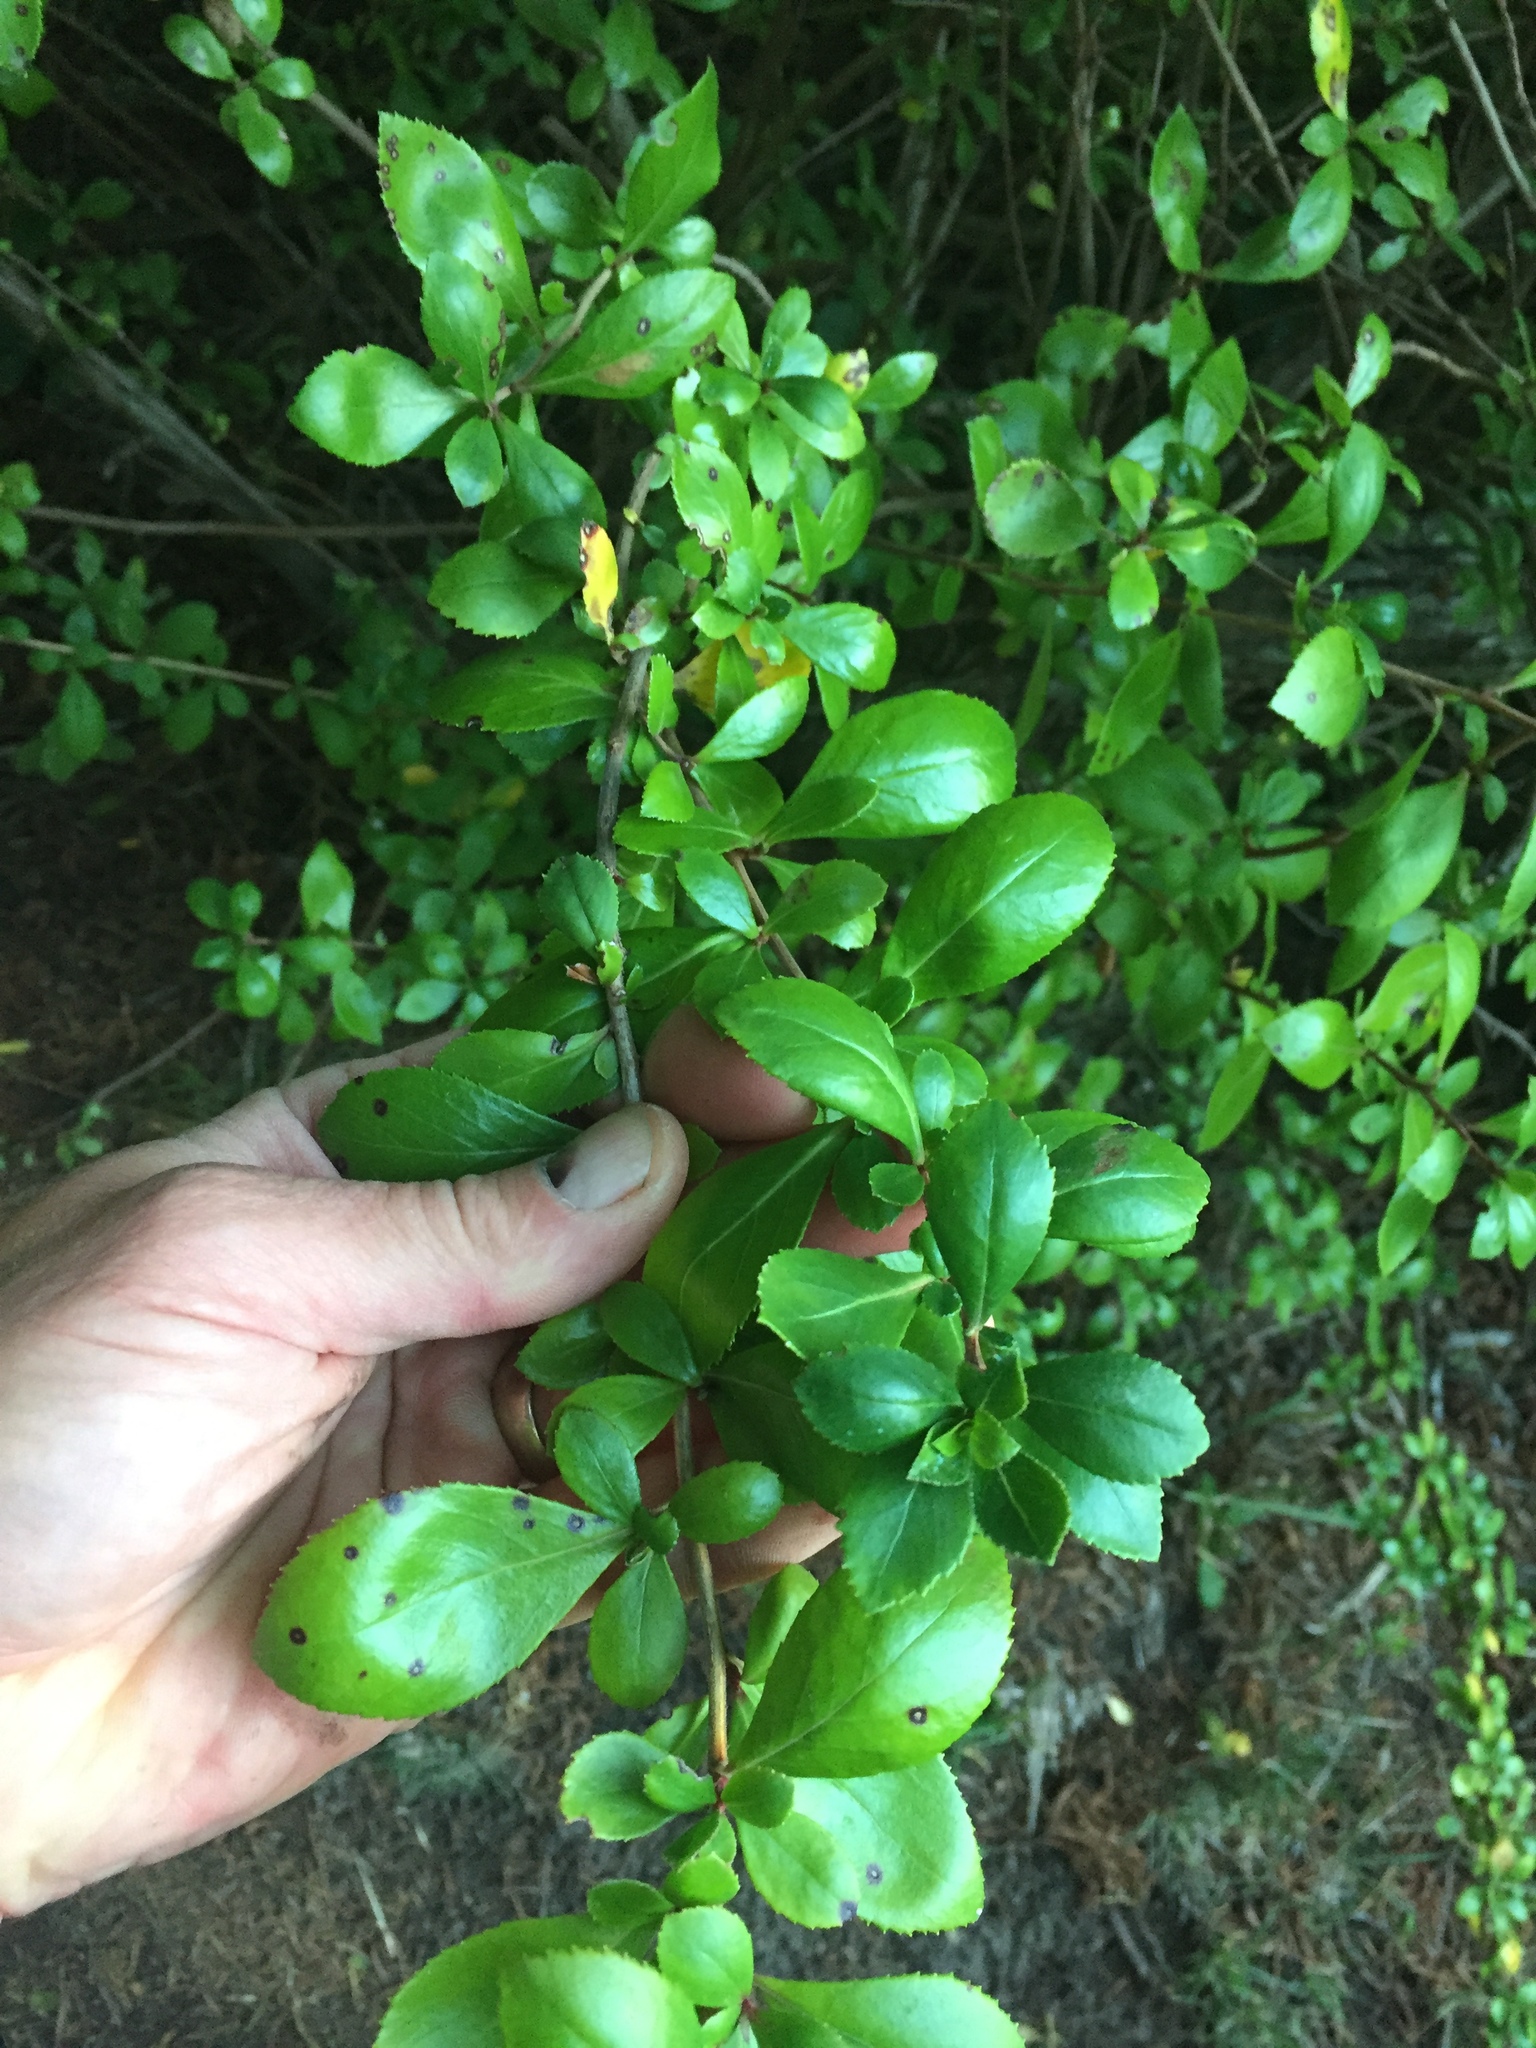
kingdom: Plantae
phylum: Tracheophyta
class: Magnoliopsida
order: Escalloniales
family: Escalloniaceae
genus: Escallonia
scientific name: Escallonia rubra
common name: Redclaws
